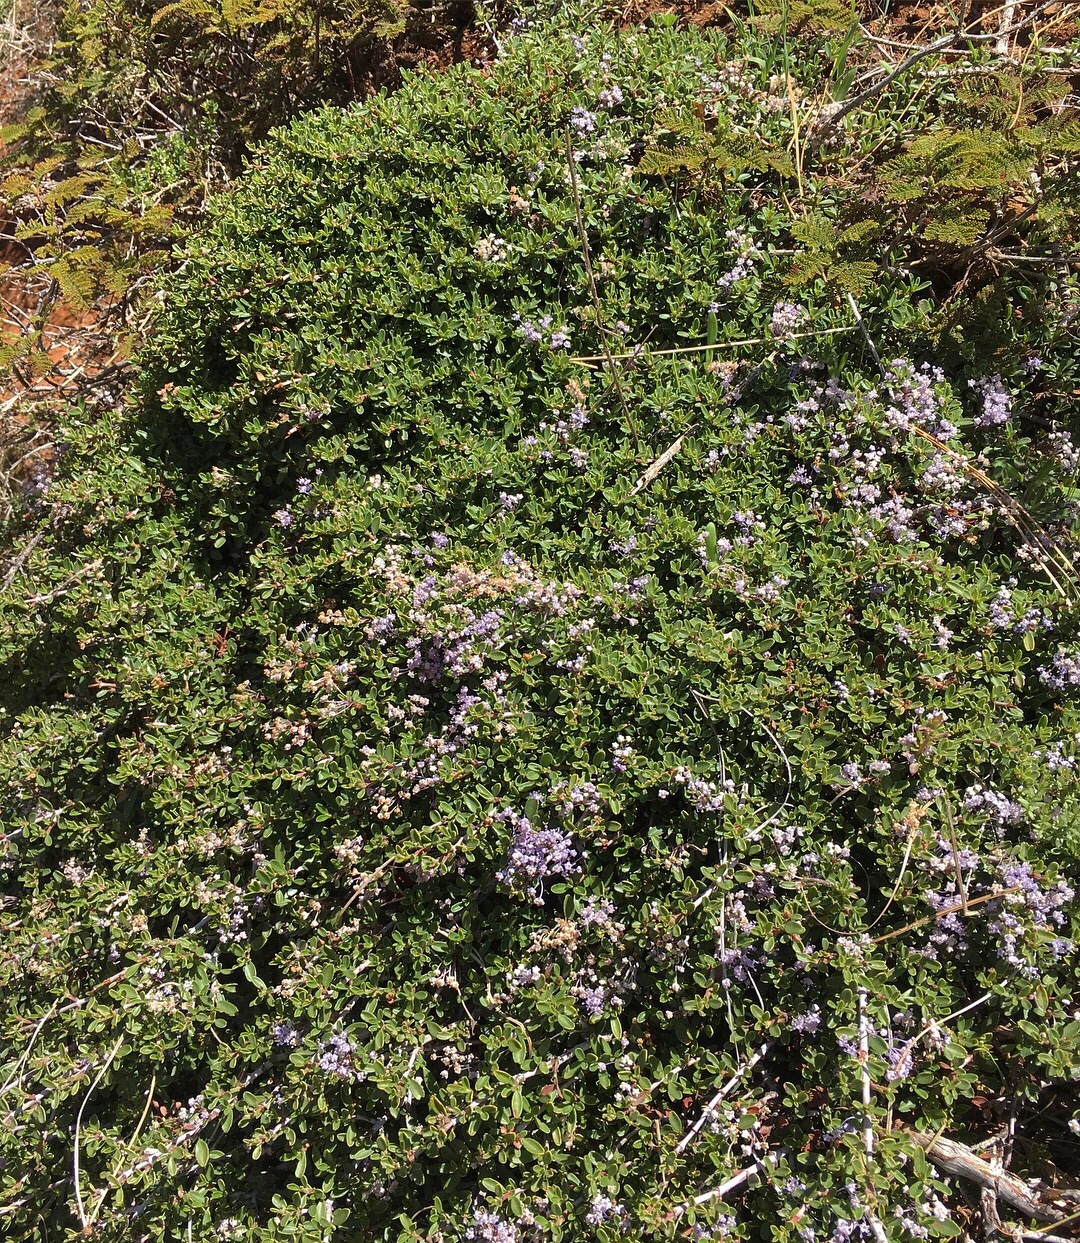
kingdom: Plantae
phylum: Tracheophyta
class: Magnoliopsida
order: Rosales
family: Rhamnaceae
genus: Ceanothus
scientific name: Ceanothus fresnensis
